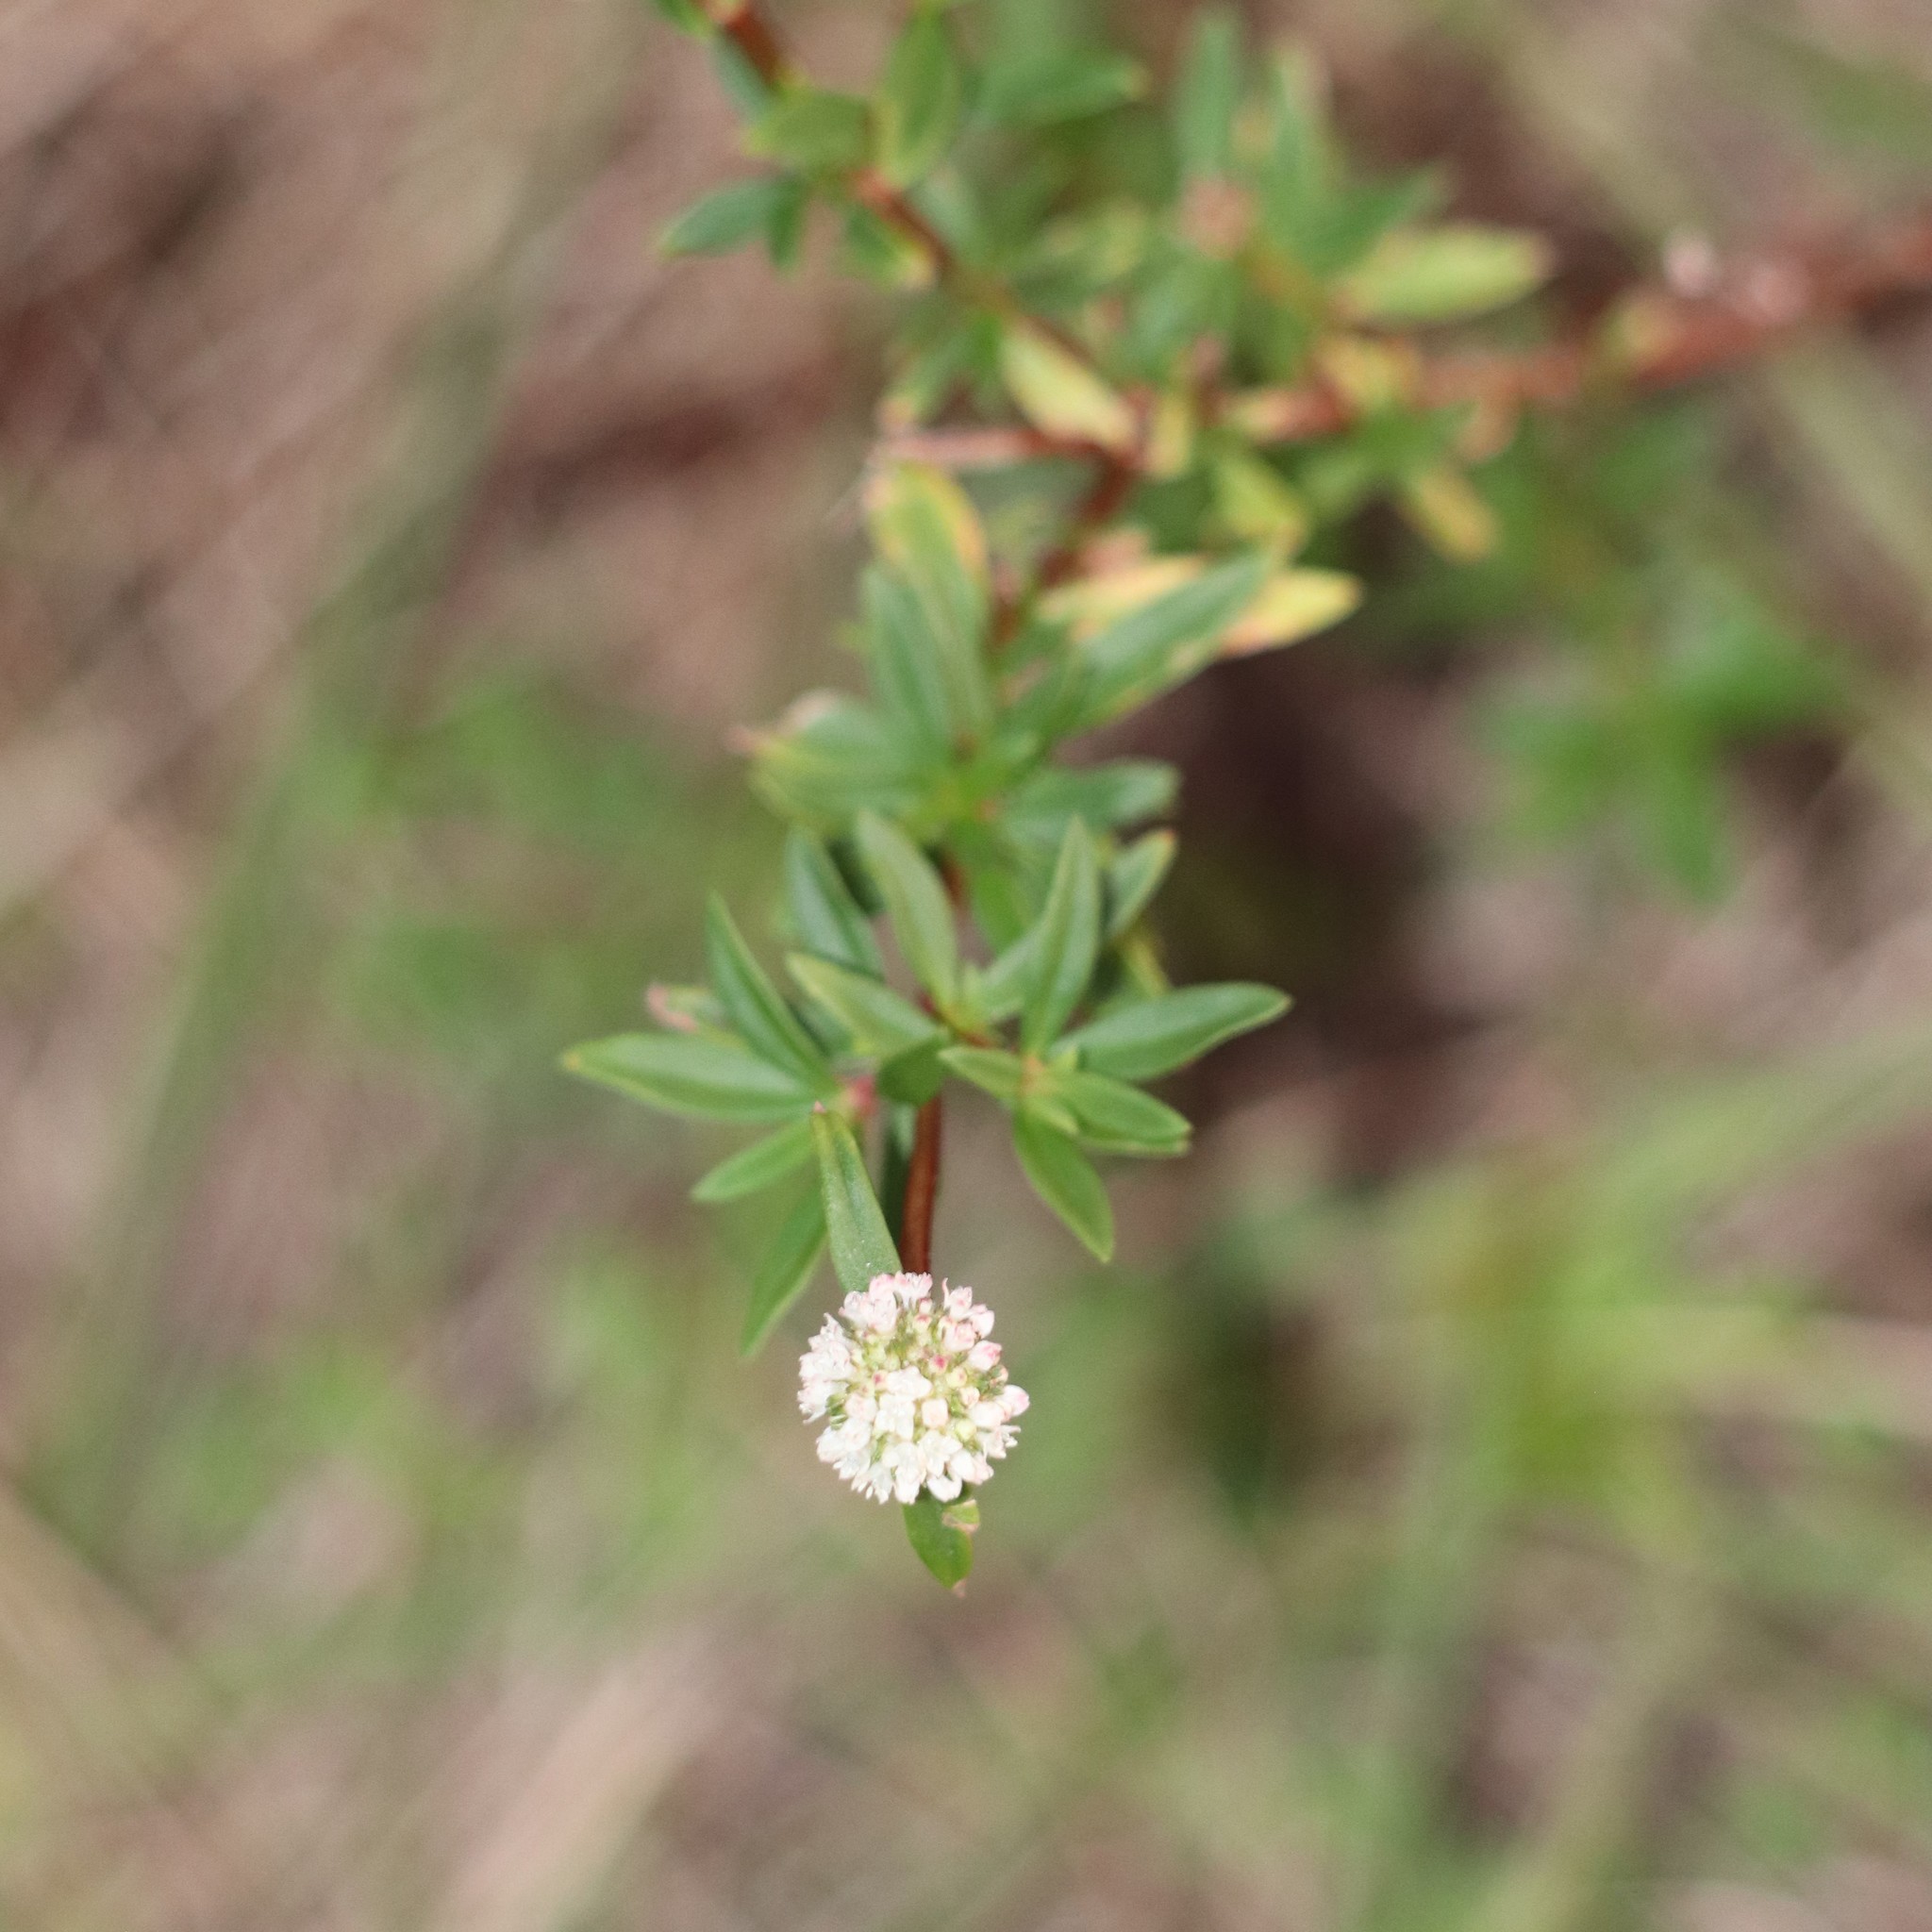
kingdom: Plantae
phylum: Tracheophyta
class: Magnoliopsida
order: Gentianales
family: Rubiaceae
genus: Spermacoce
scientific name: Spermacoce verticillata
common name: Shrubby false buttonweed
